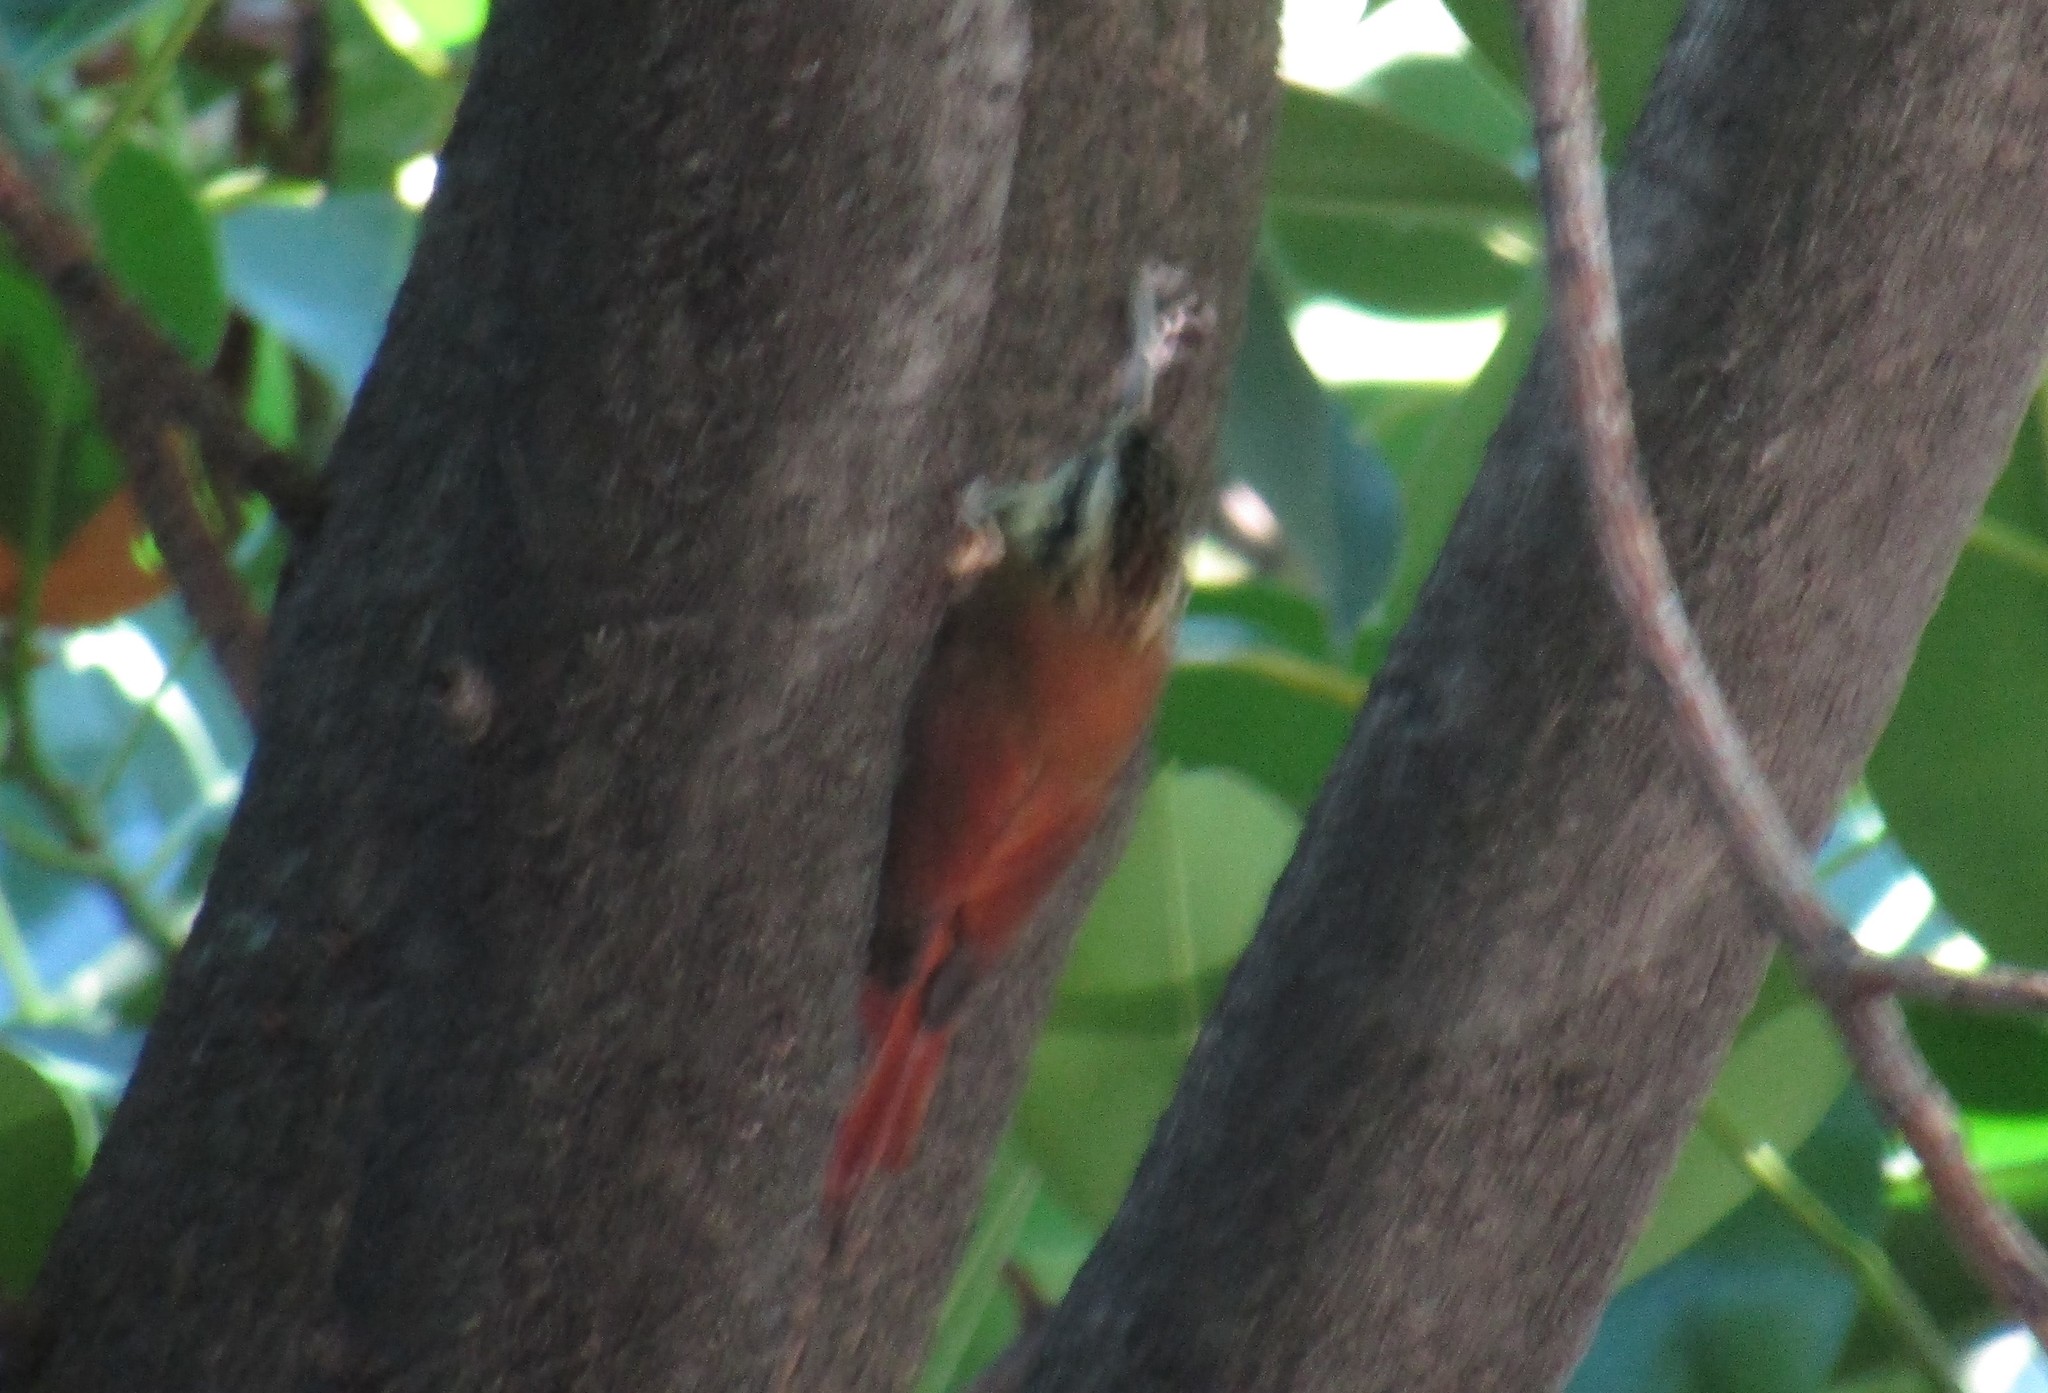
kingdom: Animalia
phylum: Chordata
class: Aves
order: Passeriformes
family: Furnariidae
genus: Lepidocolaptes
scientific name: Lepidocolaptes angustirostris
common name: Narrow-billed woodcreeper
